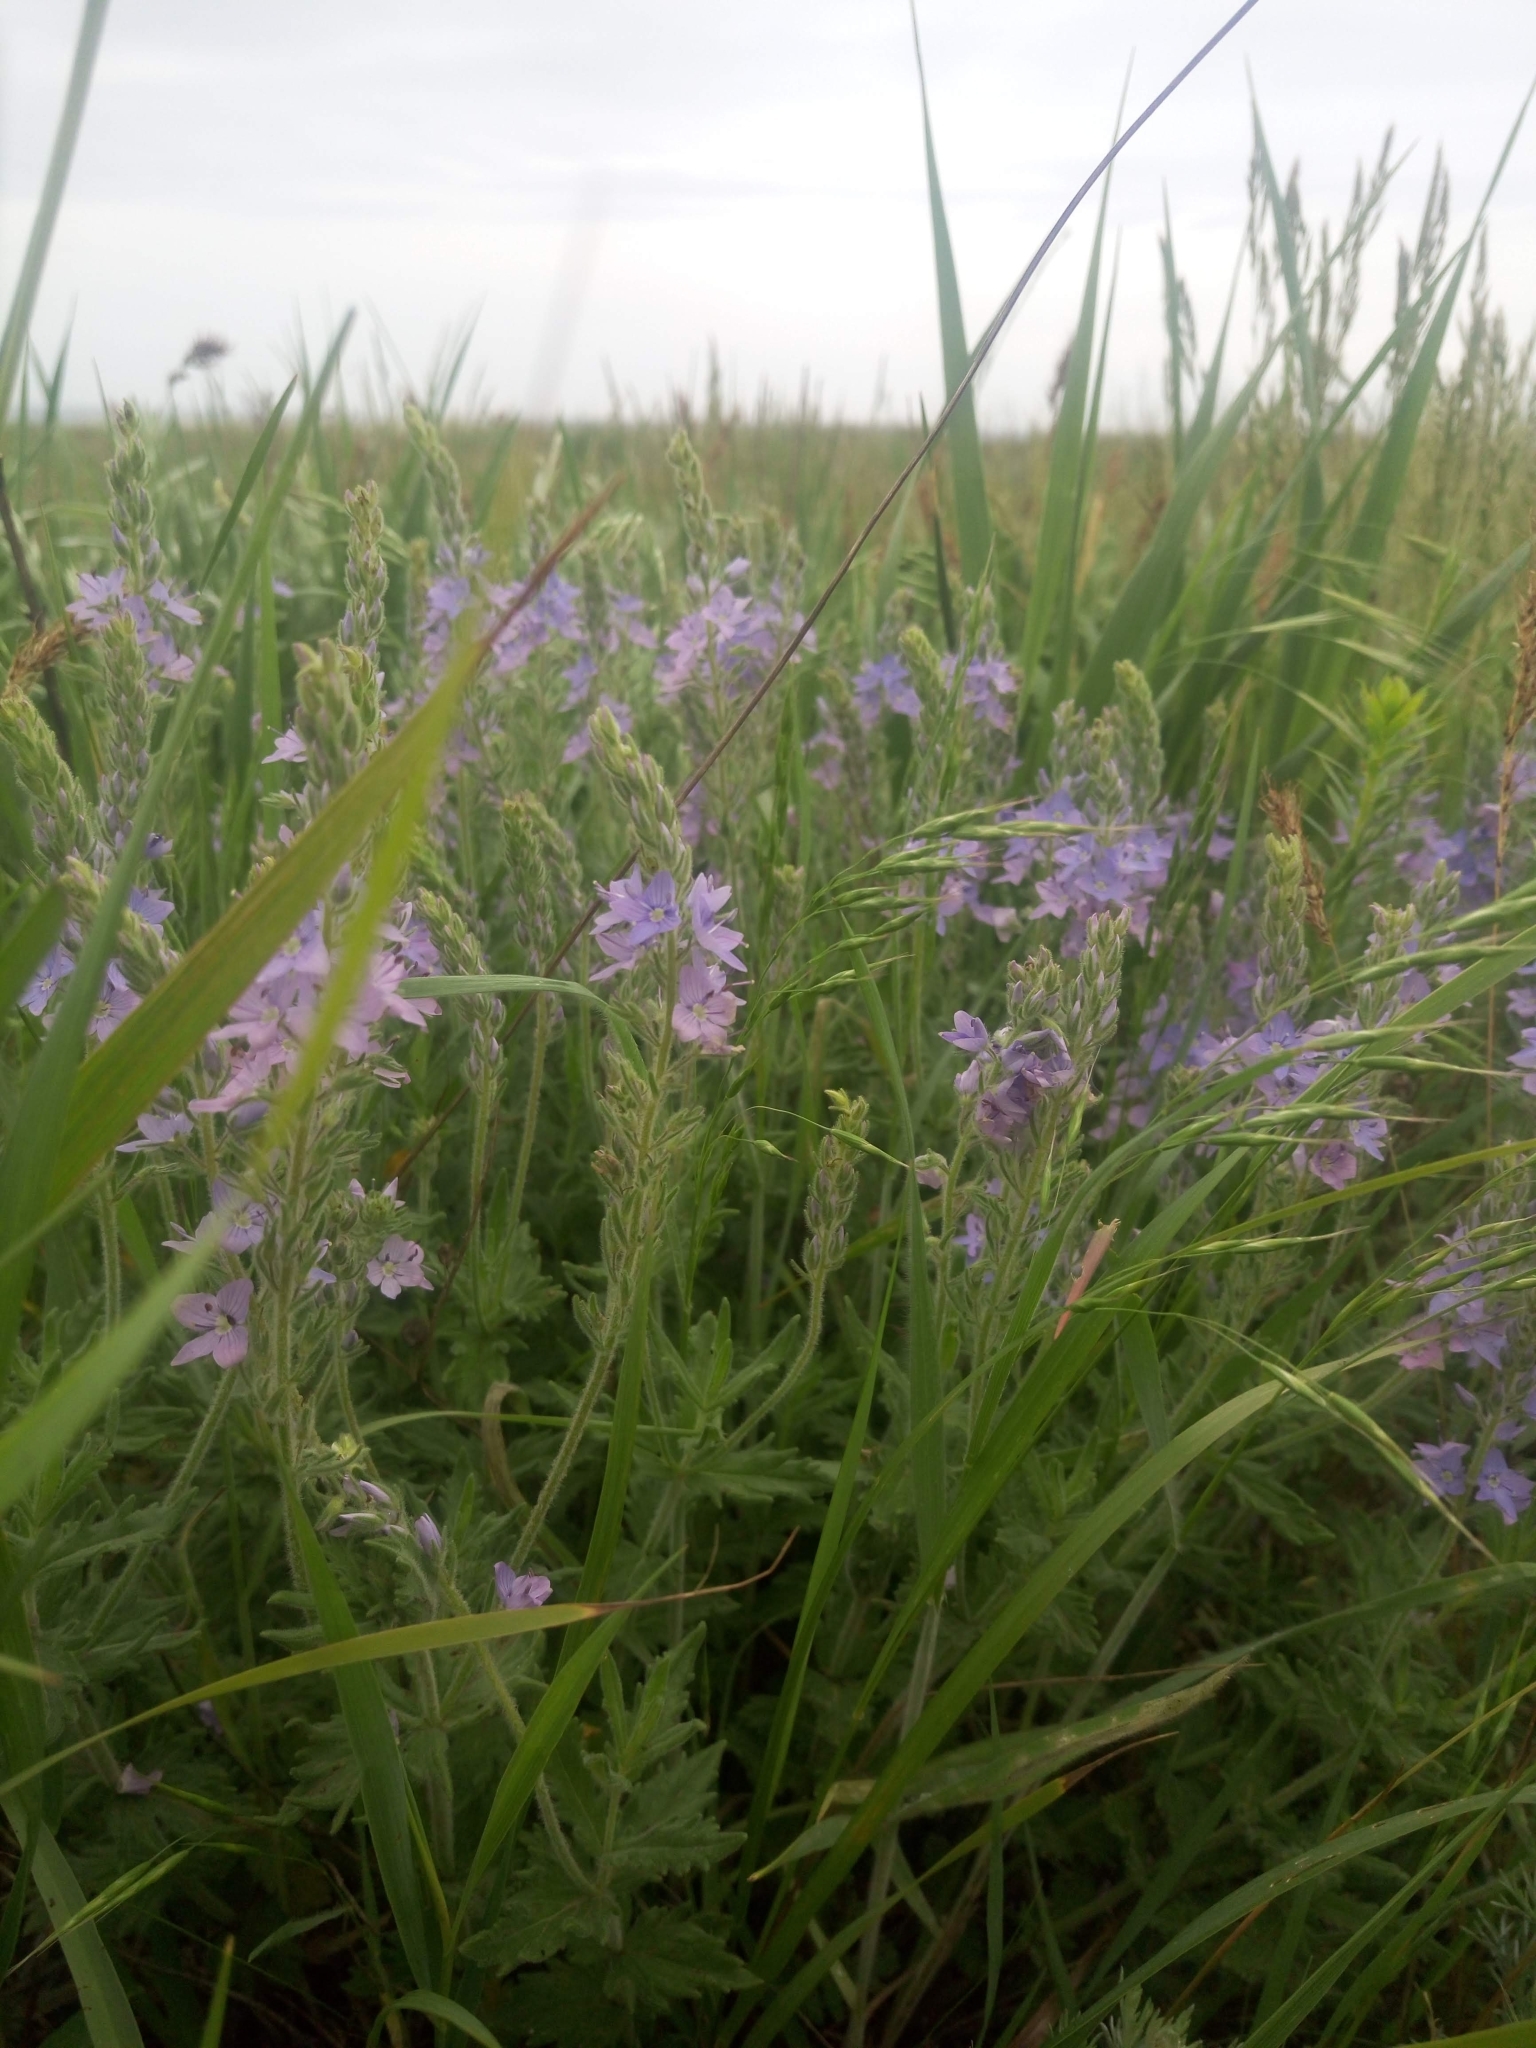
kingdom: Plantae
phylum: Tracheophyta
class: Magnoliopsida
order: Lamiales
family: Plantaginaceae
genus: Veronica
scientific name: Veronica austriaca
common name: Large speedwell
